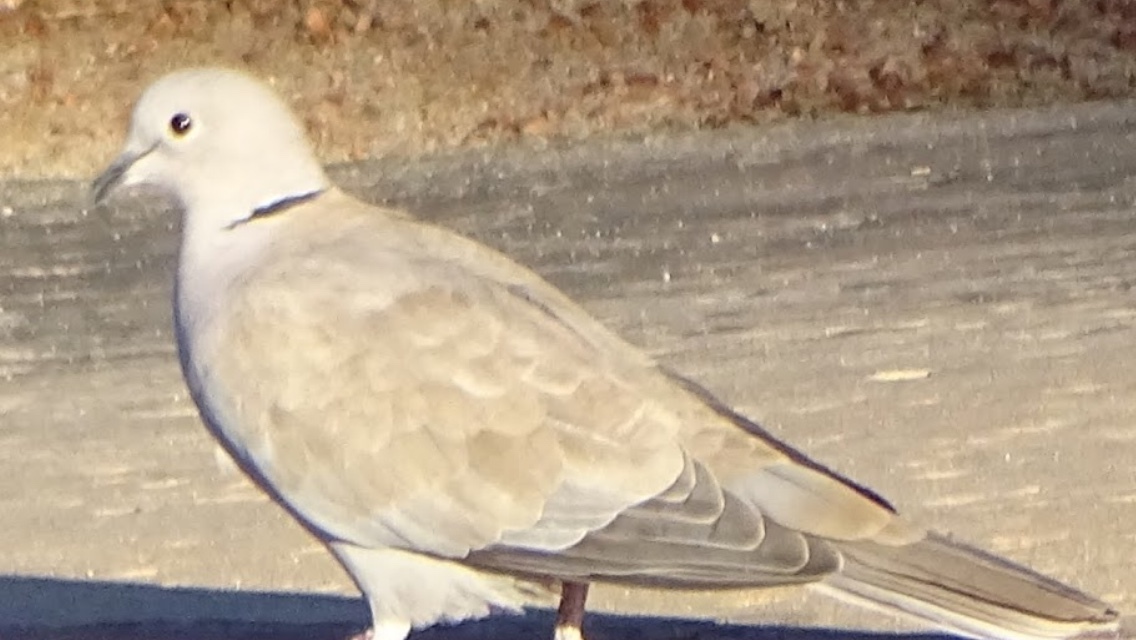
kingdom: Animalia
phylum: Chordata
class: Aves
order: Columbiformes
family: Columbidae
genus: Streptopelia
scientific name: Streptopelia decaocto
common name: Eurasian collared dove
